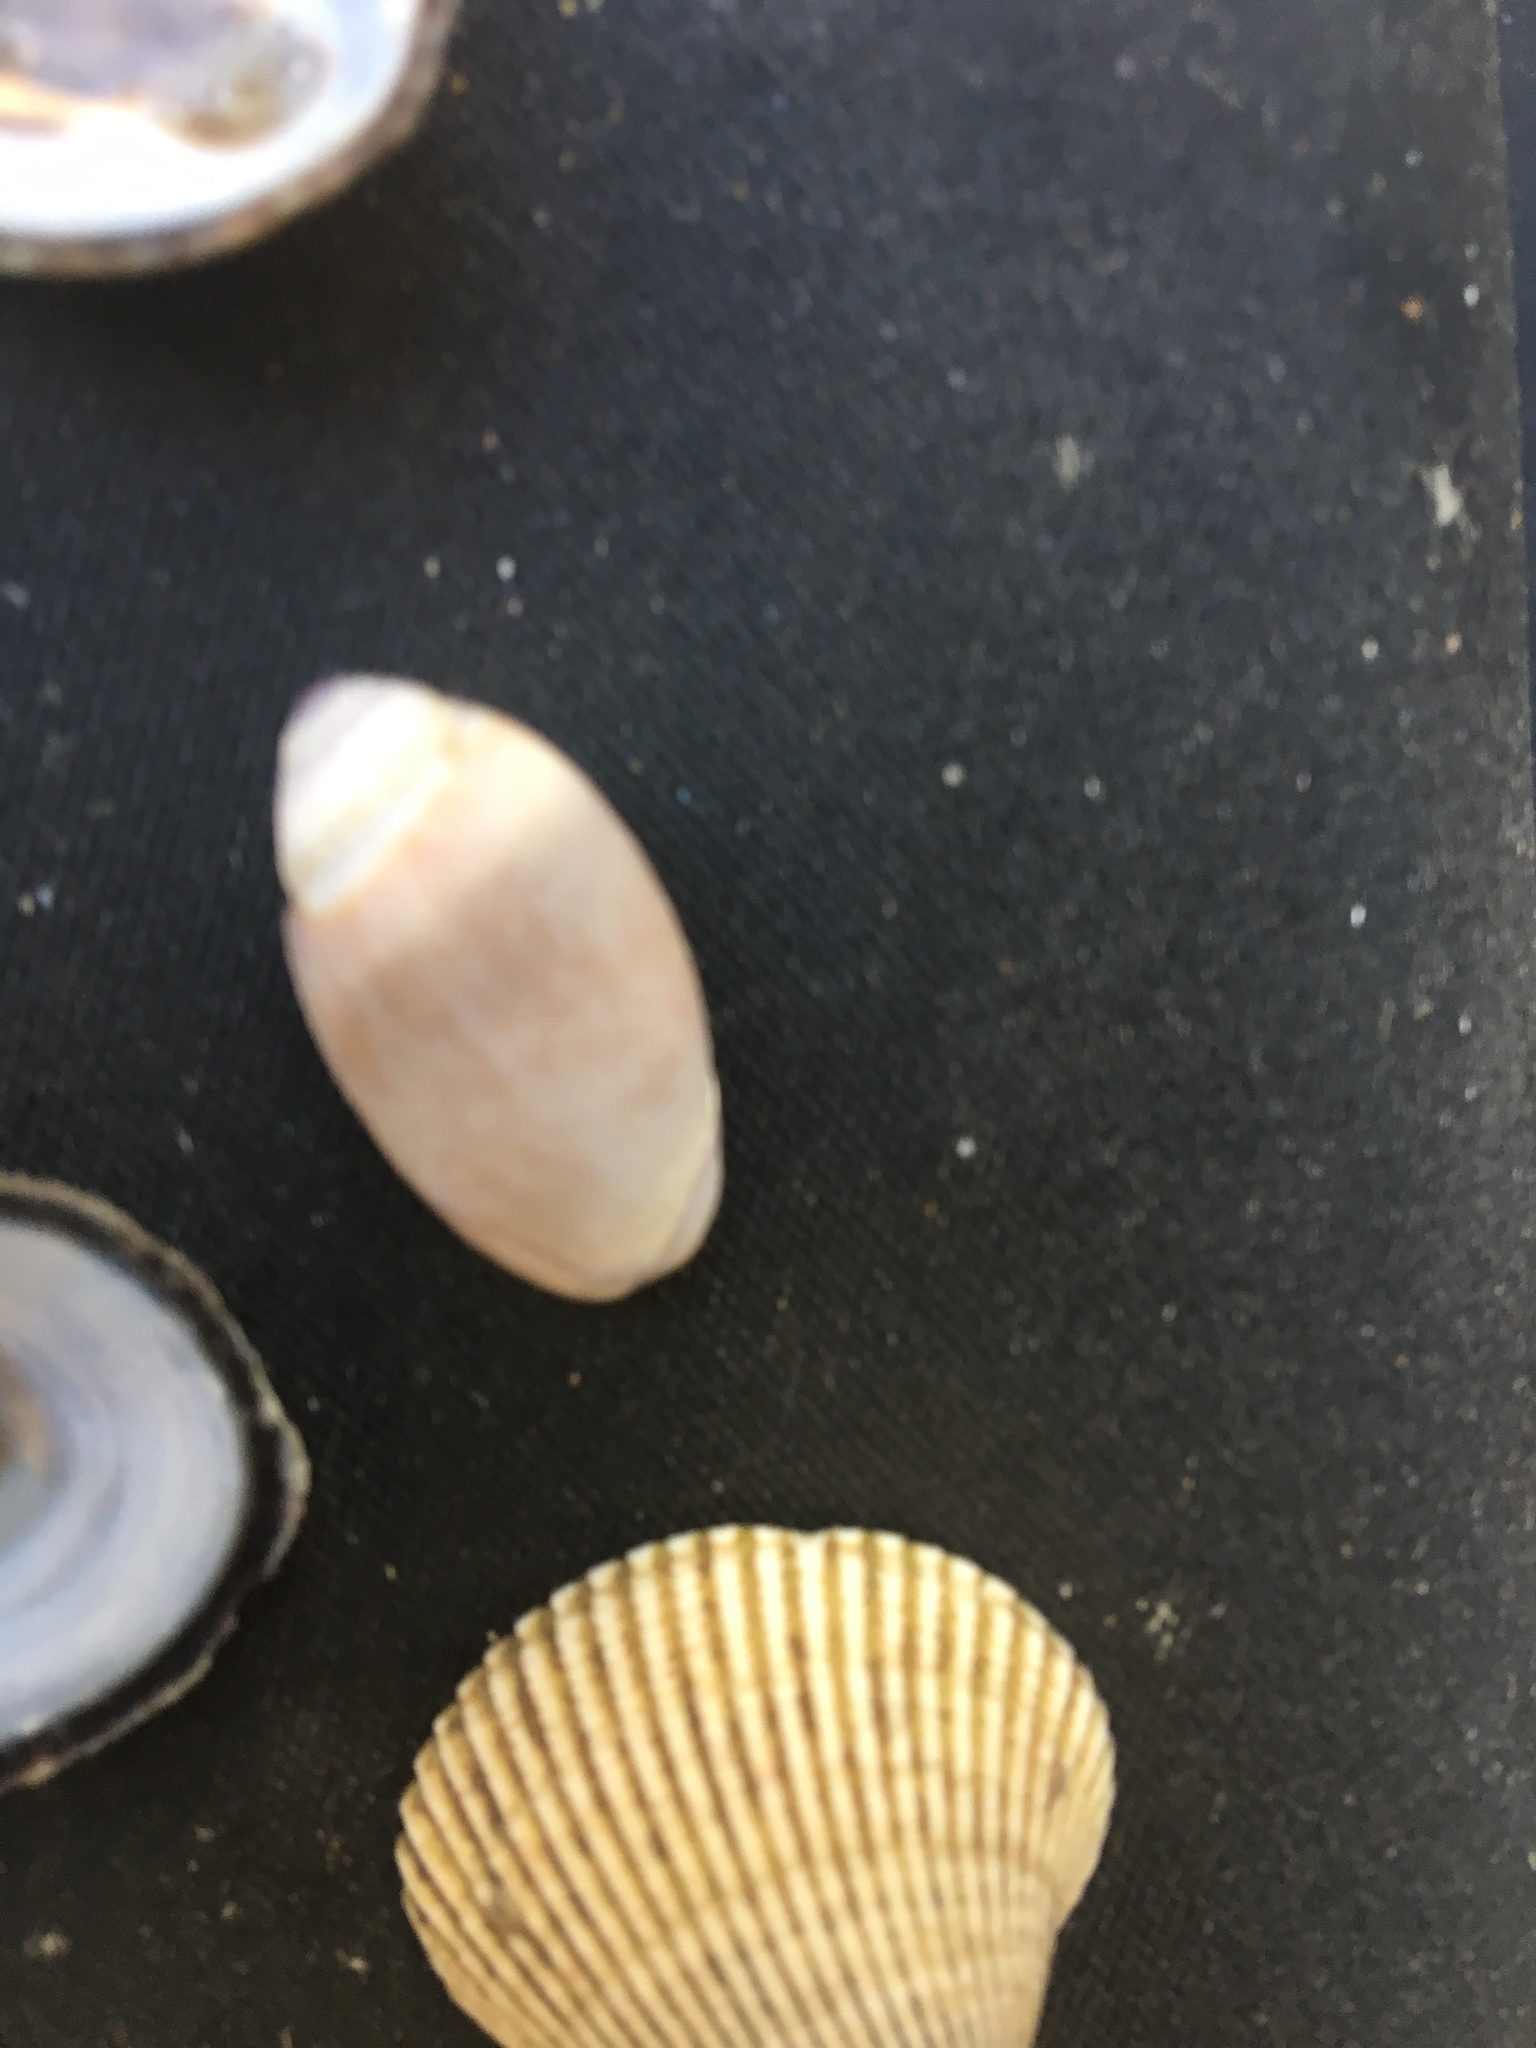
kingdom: Animalia
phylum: Mollusca
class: Gastropoda
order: Neogastropoda
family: Olividae
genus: Callianax
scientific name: Callianax biplicata
